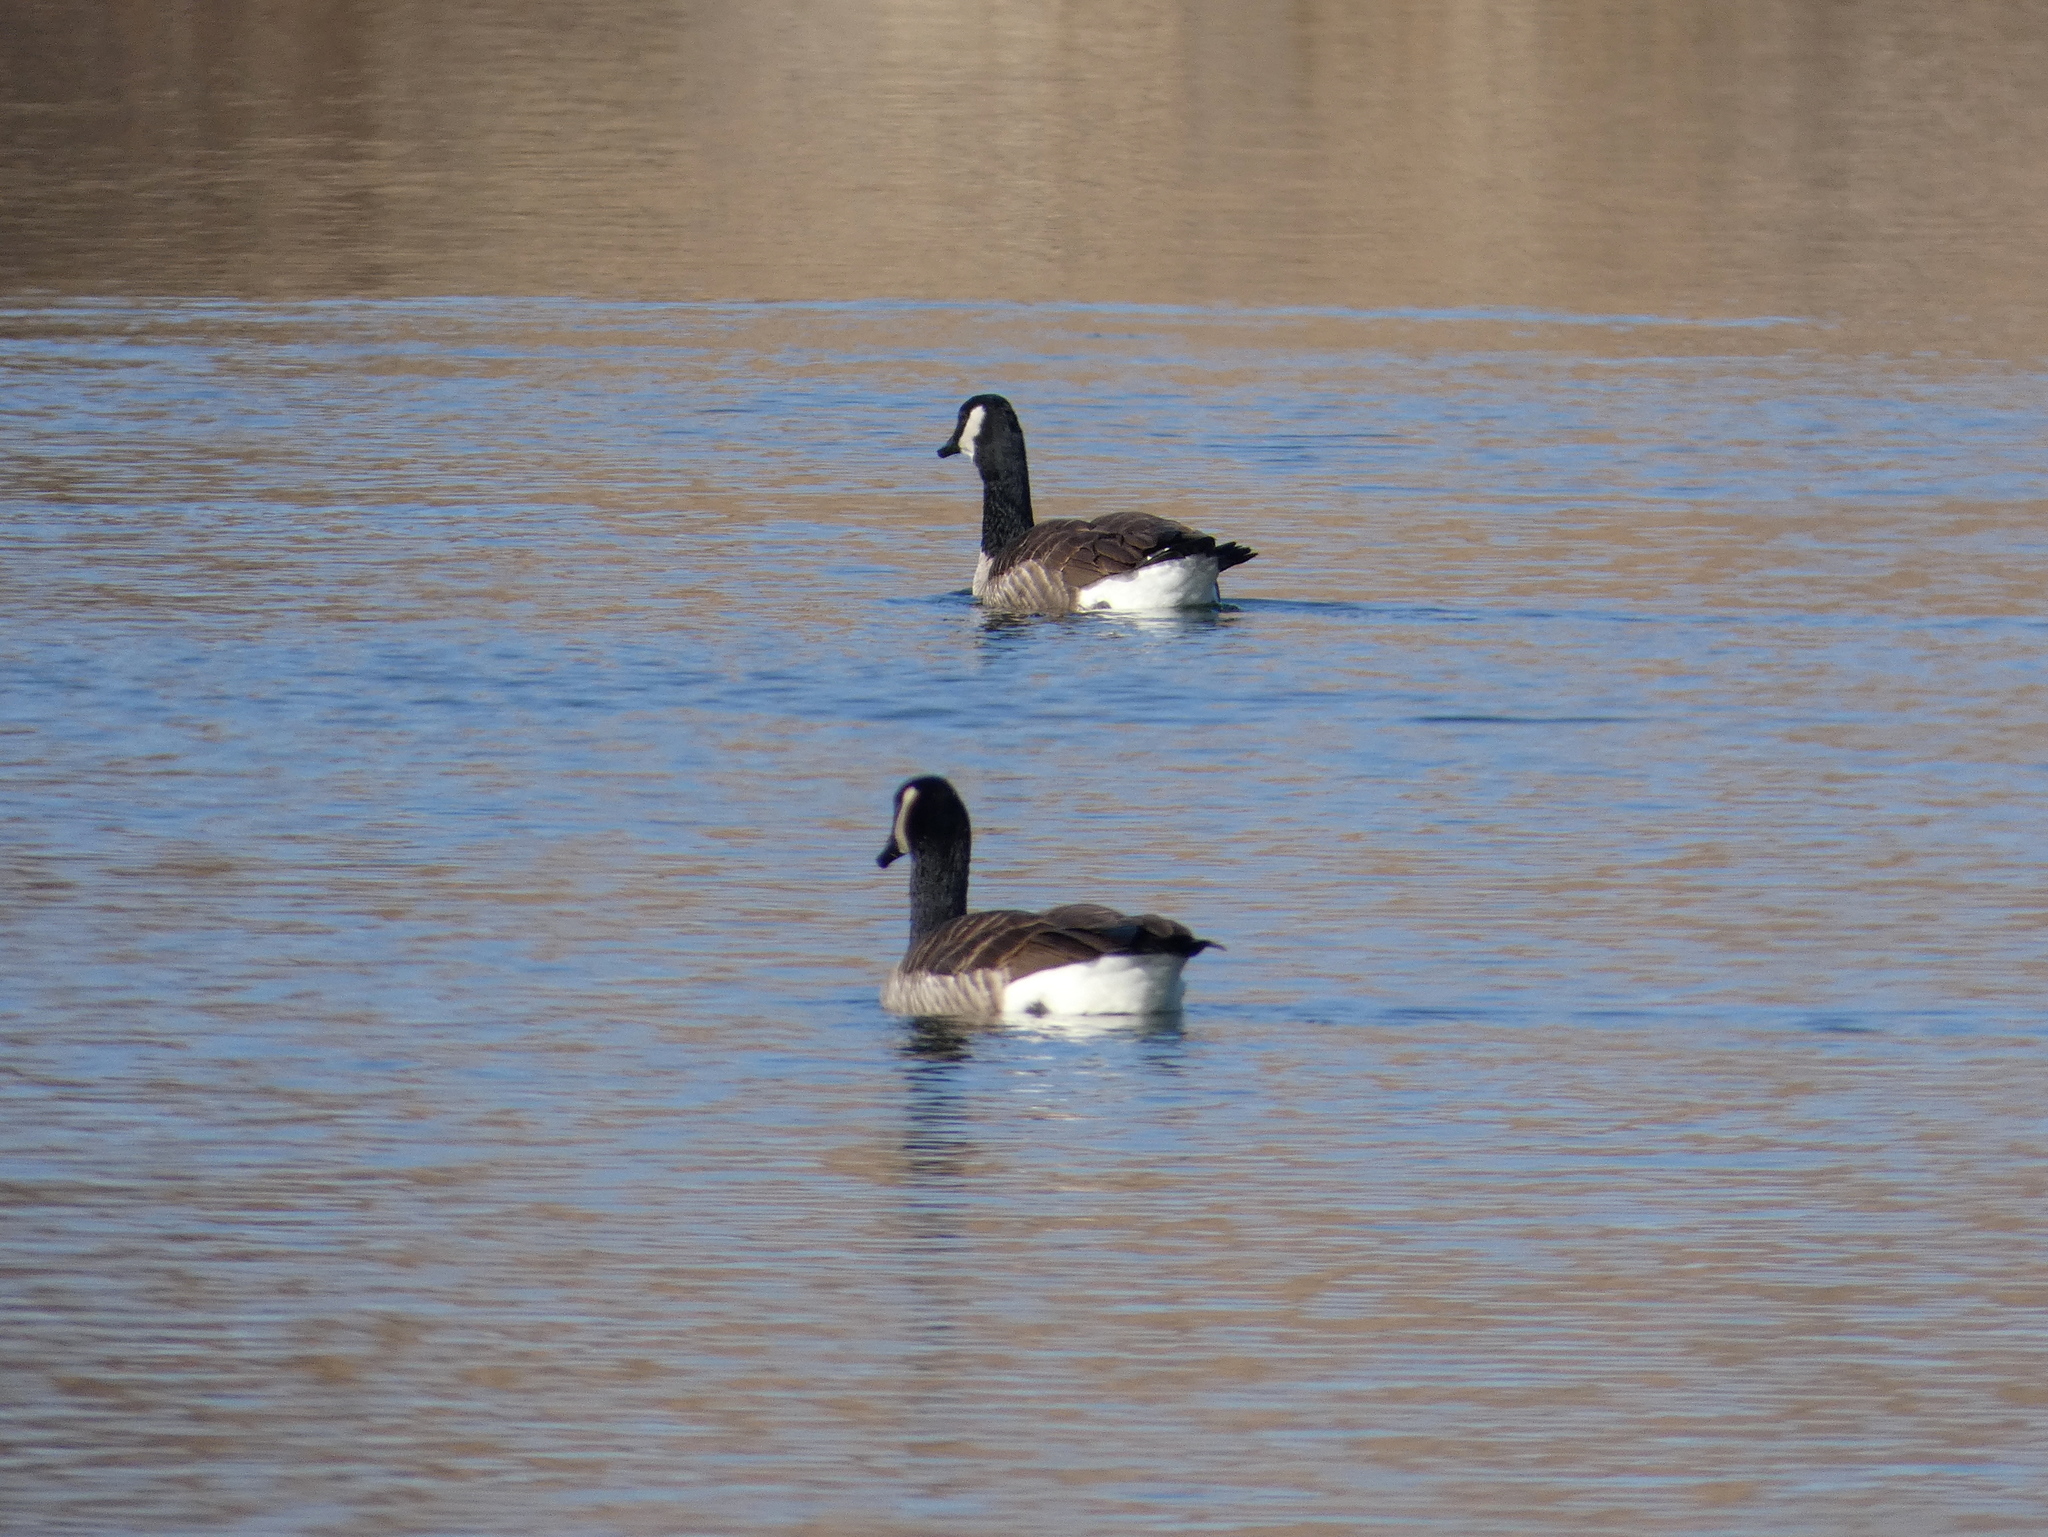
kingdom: Animalia
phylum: Chordata
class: Aves
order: Anseriformes
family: Anatidae
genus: Branta
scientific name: Branta canadensis
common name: Canada goose
